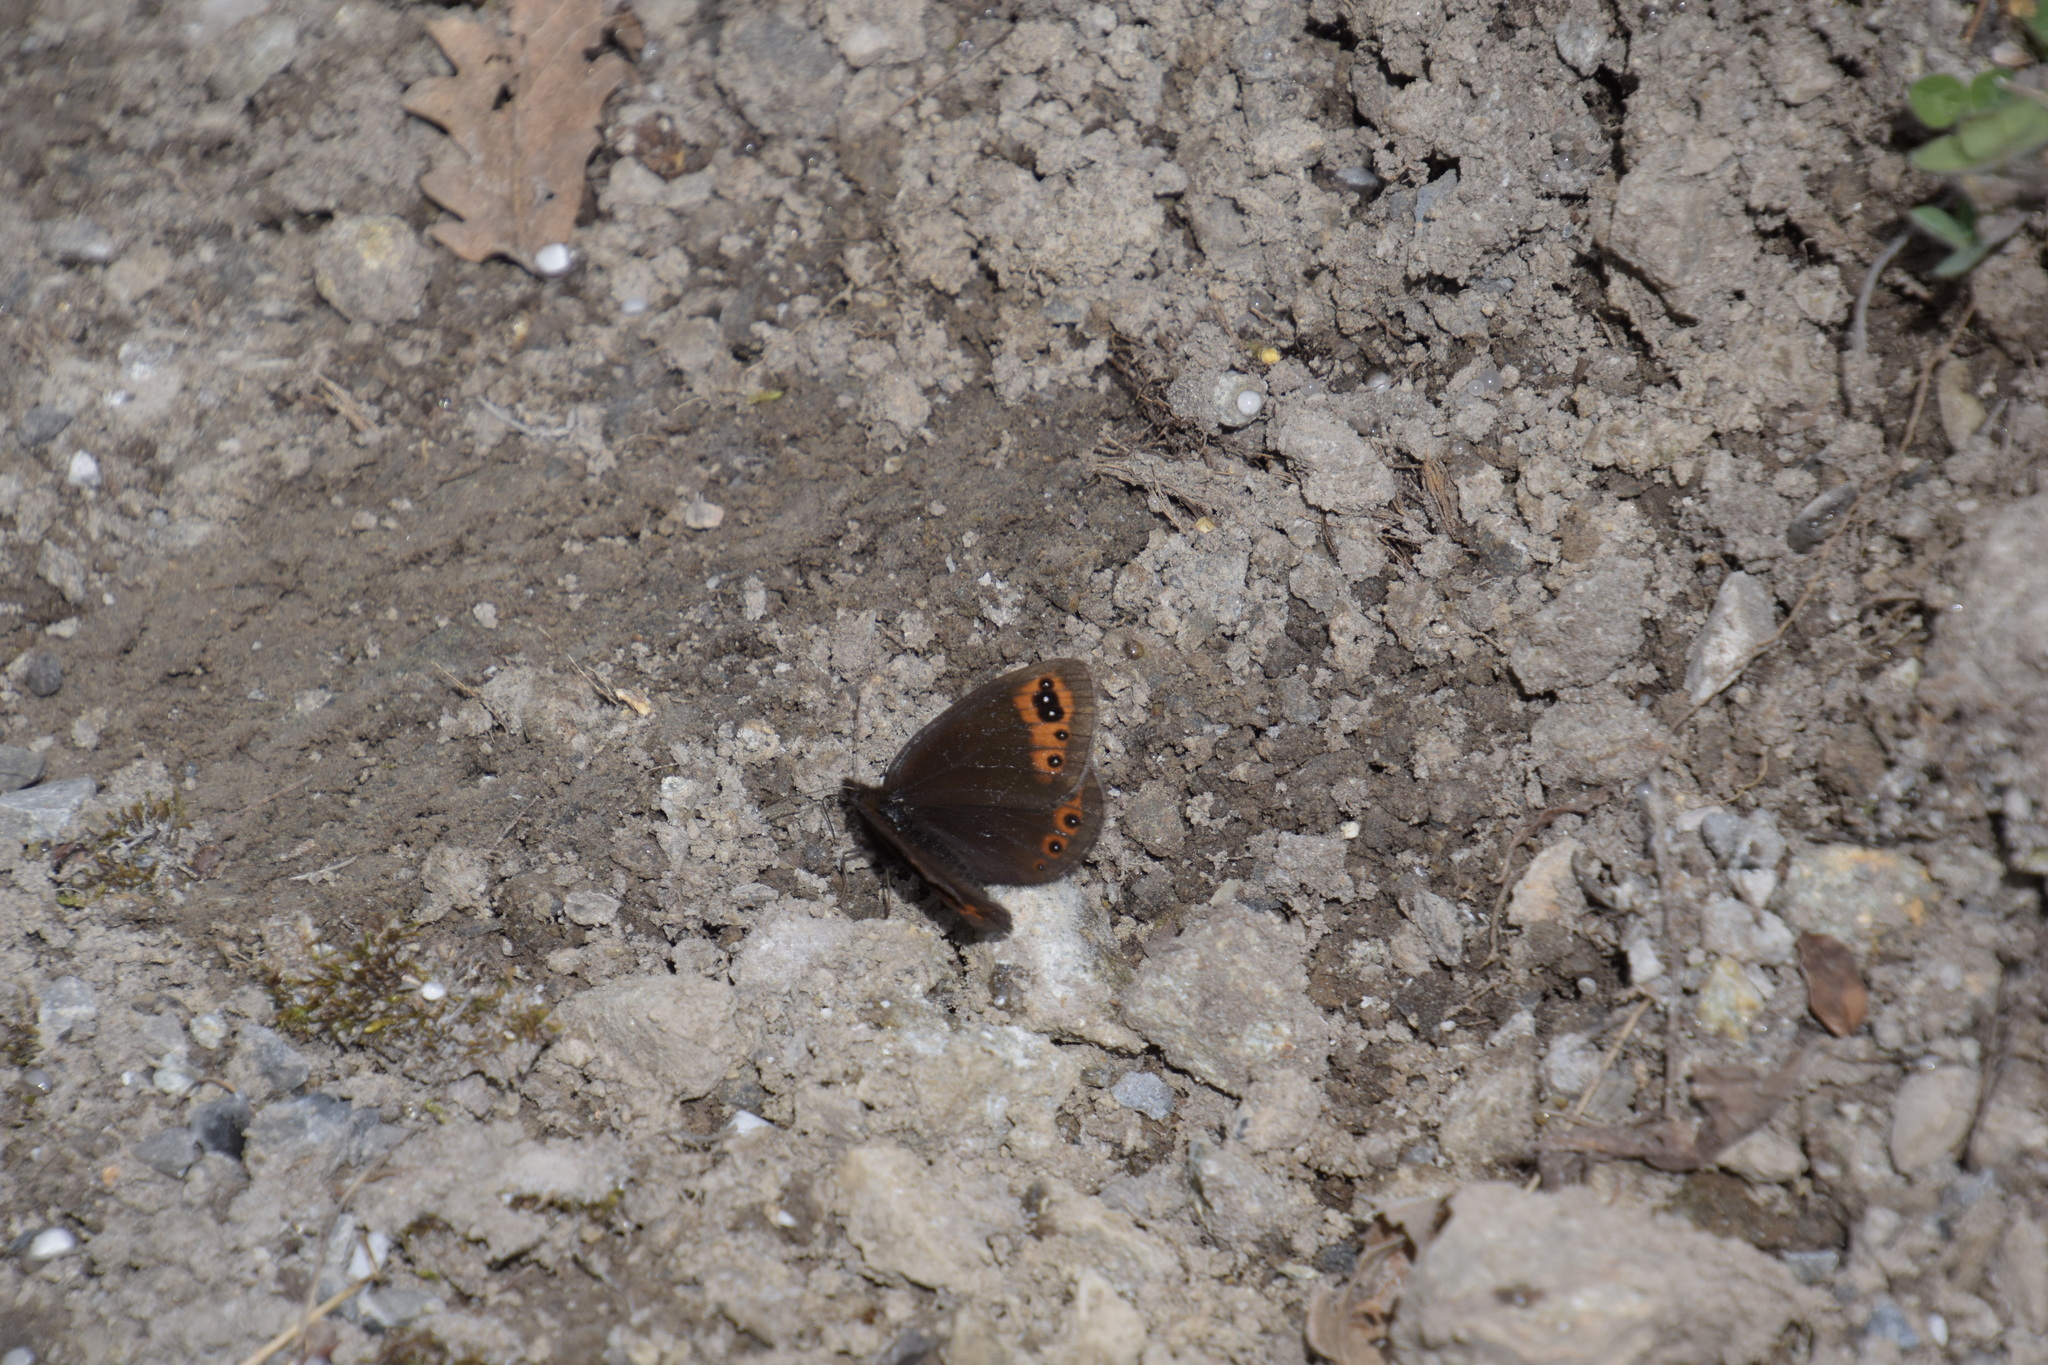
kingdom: Animalia
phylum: Arthropoda
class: Insecta
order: Lepidoptera
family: Nymphalidae
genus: Erebia
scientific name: Erebia triarius
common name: De prunner’s ringlet
